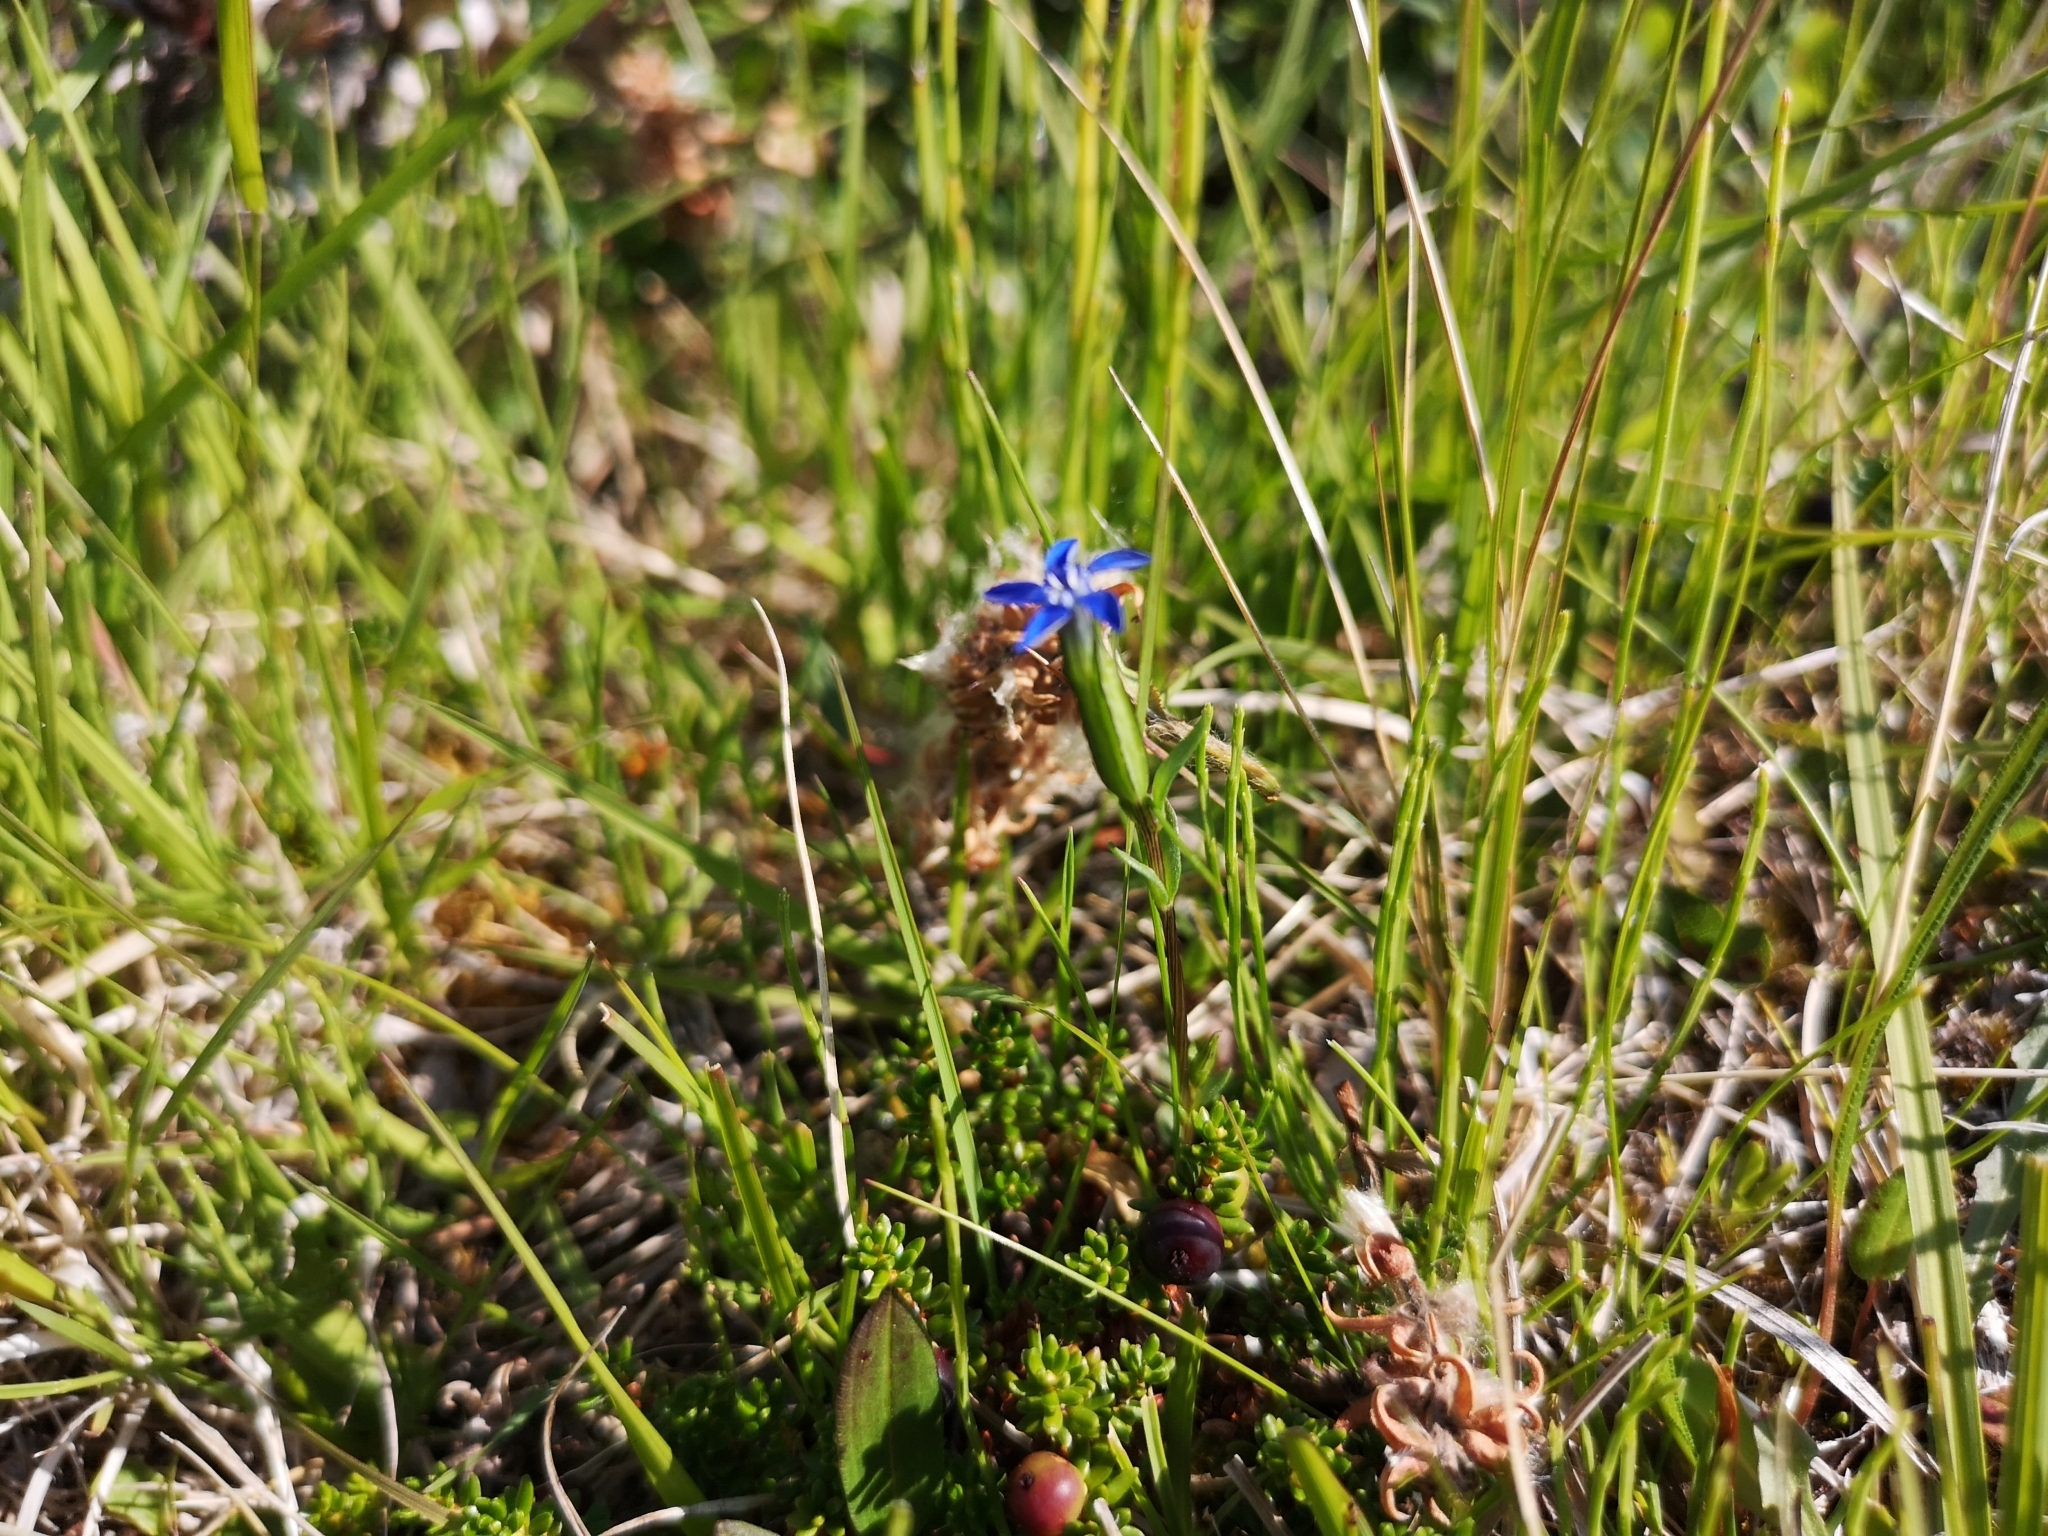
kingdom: Plantae
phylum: Tracheophyta
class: Magnoliopsida
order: Gentianales
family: Gentianaceae
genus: Gentiana
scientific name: Gentiana nivalis
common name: Alpine gentian
